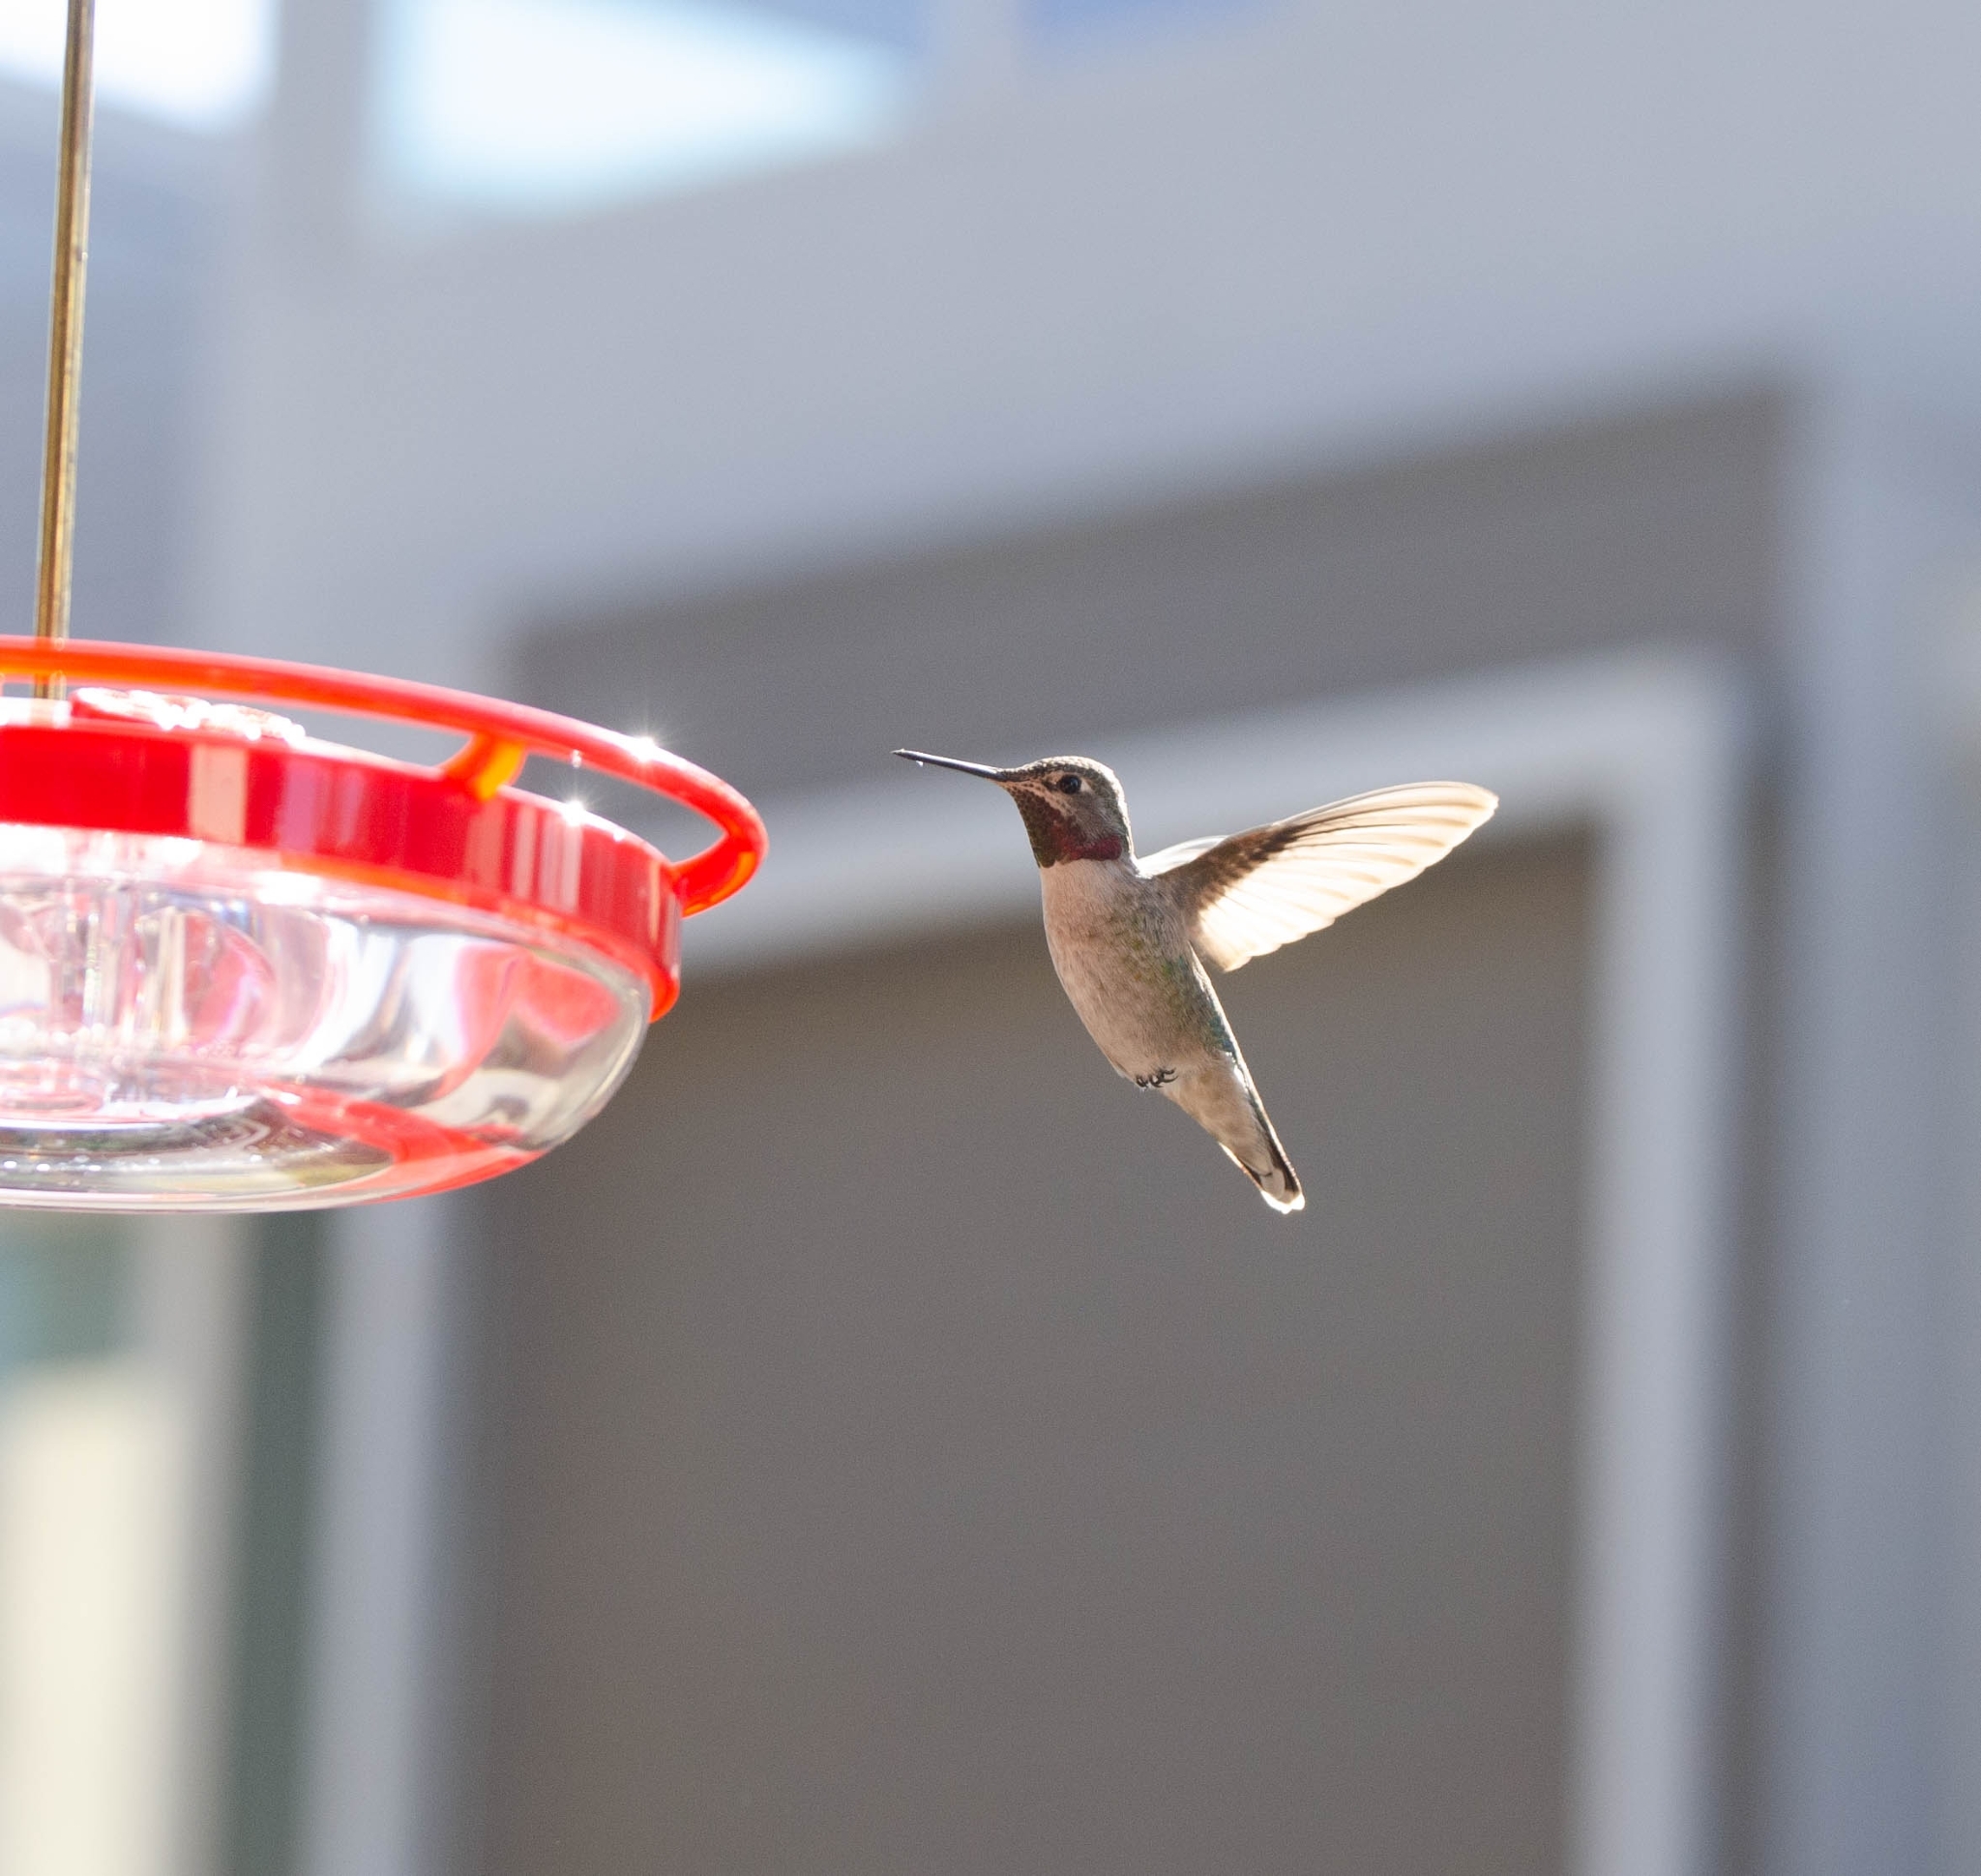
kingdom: Animalia
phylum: Chordata
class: Aves
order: Apodiformes
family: Trochilidae
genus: Calypte
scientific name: Calypte anna
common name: Anna's hummingbird
